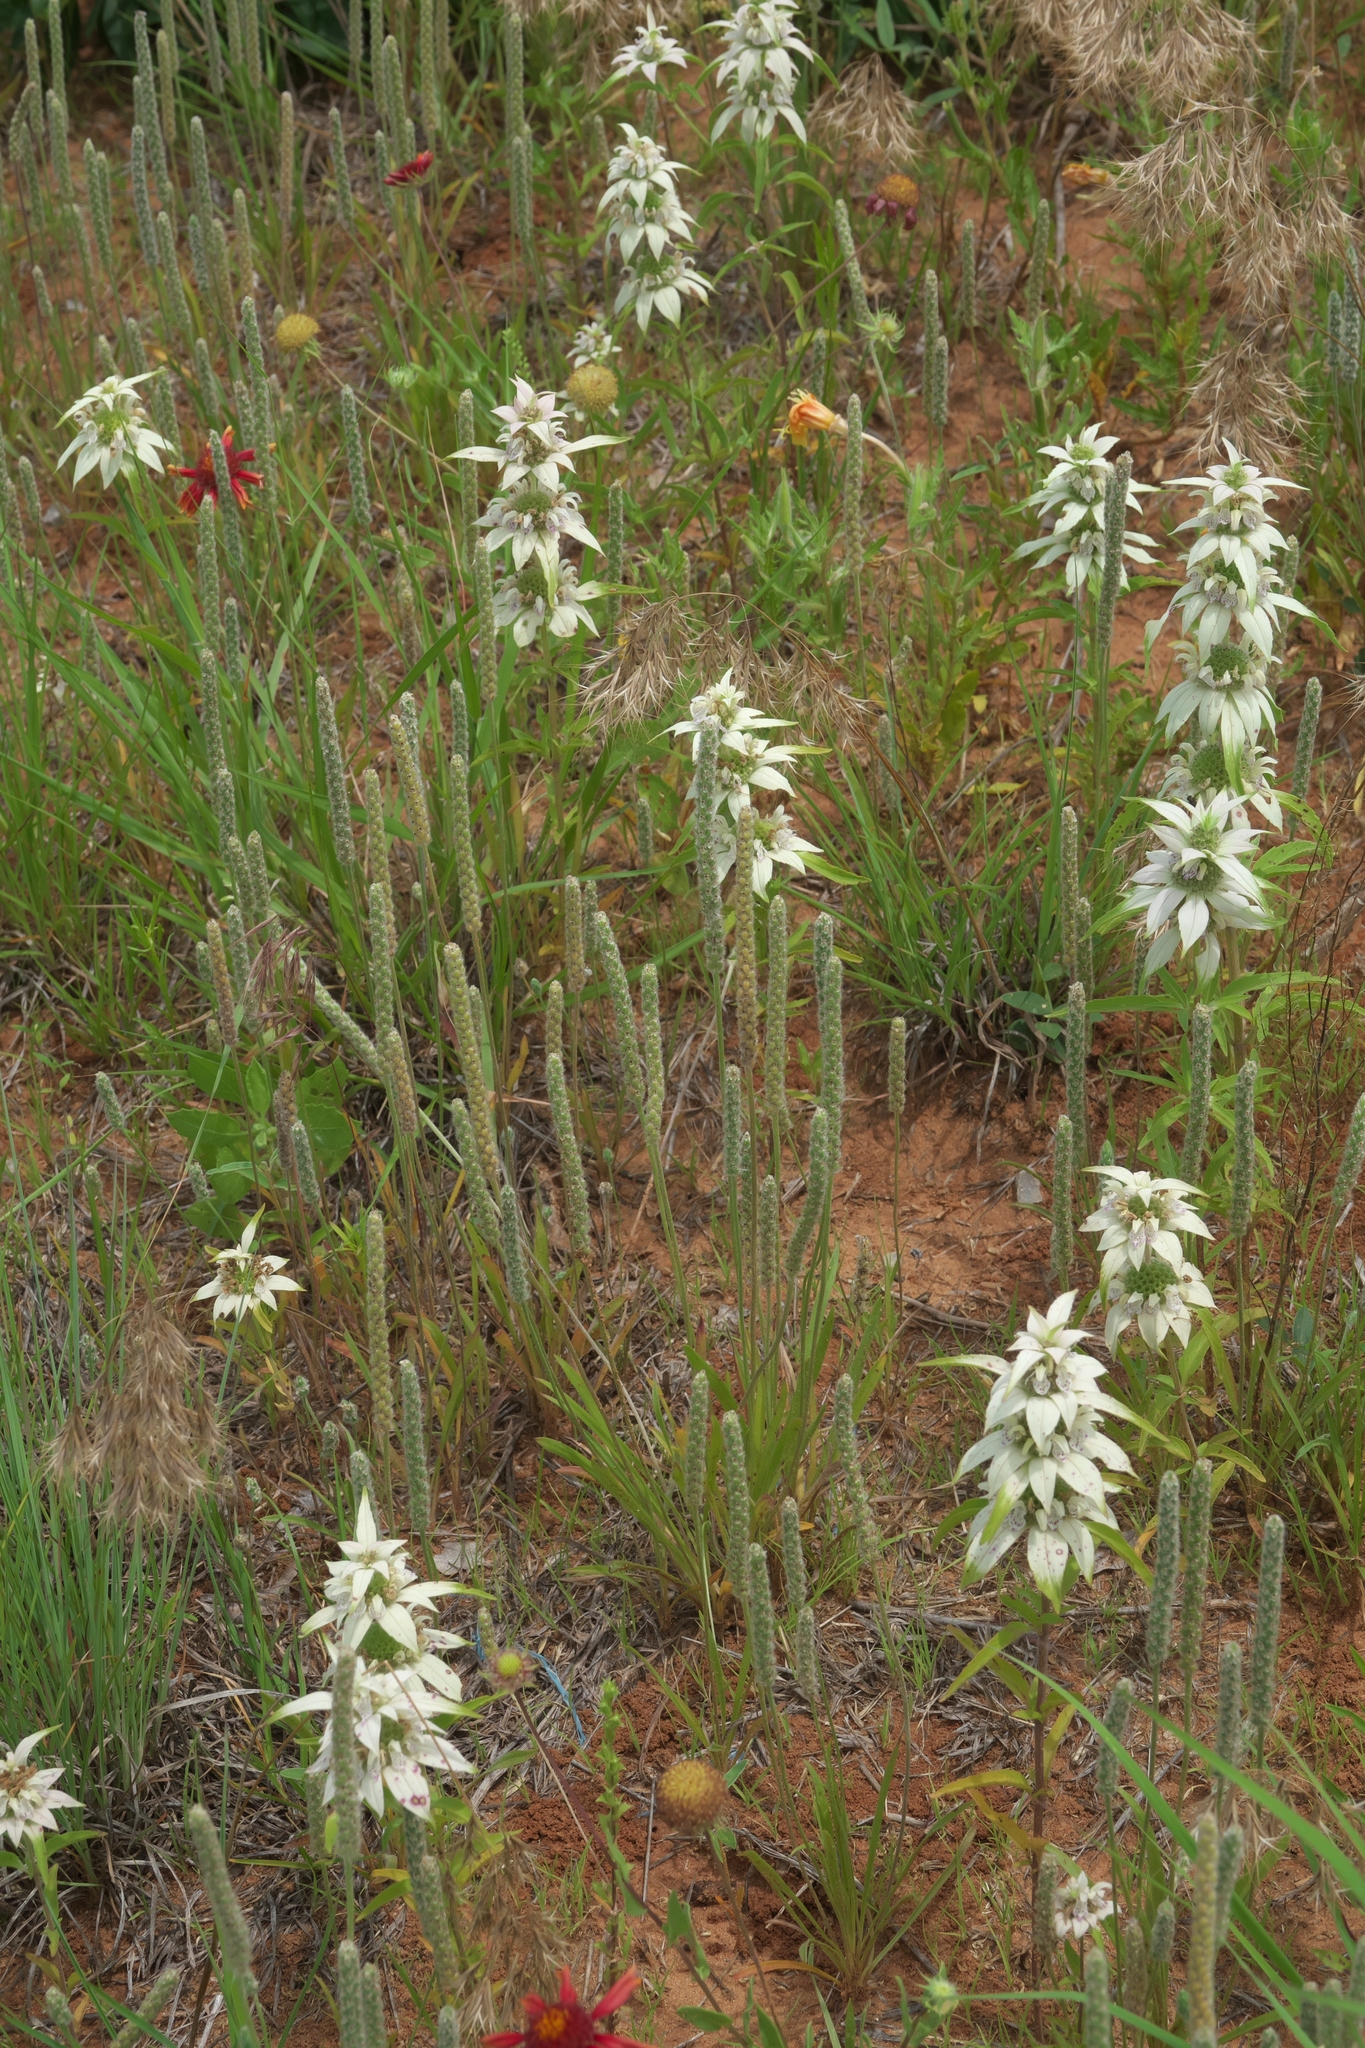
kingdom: Plantae
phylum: Tracheophyta
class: Magnoliopsida
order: Lamiales
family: Plantaginaceae
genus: Plantago
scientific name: Plantago wrightiana
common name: Wright's plantain
